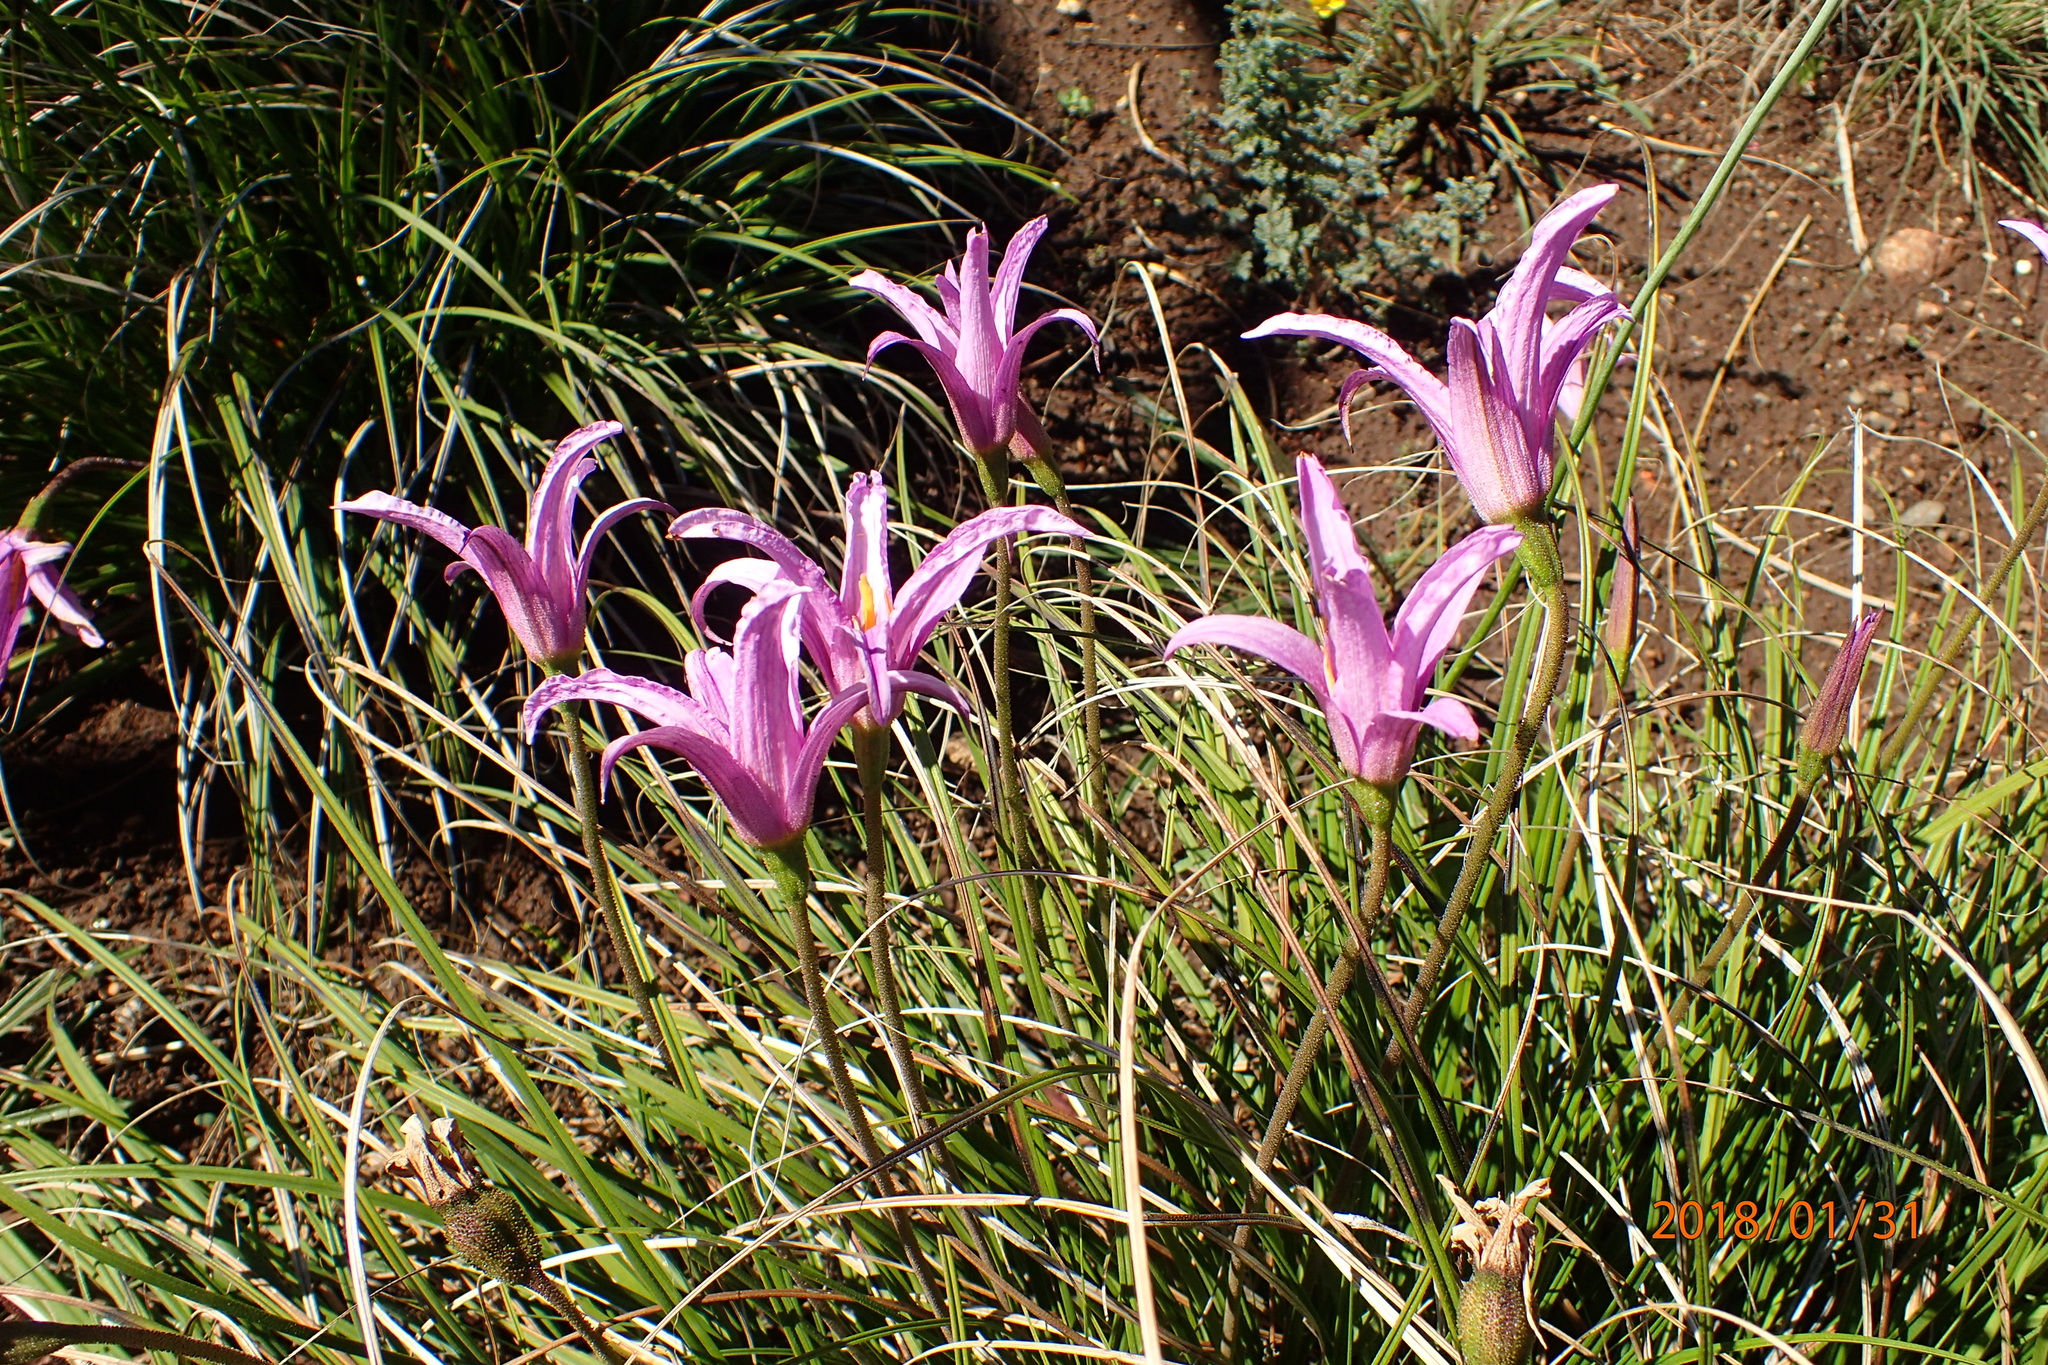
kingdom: Plantae
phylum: Tracheophyta
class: Liliopsida
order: Pandanales
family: Velloziaceae
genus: Xerophyta
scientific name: Xerophyta viscosa
